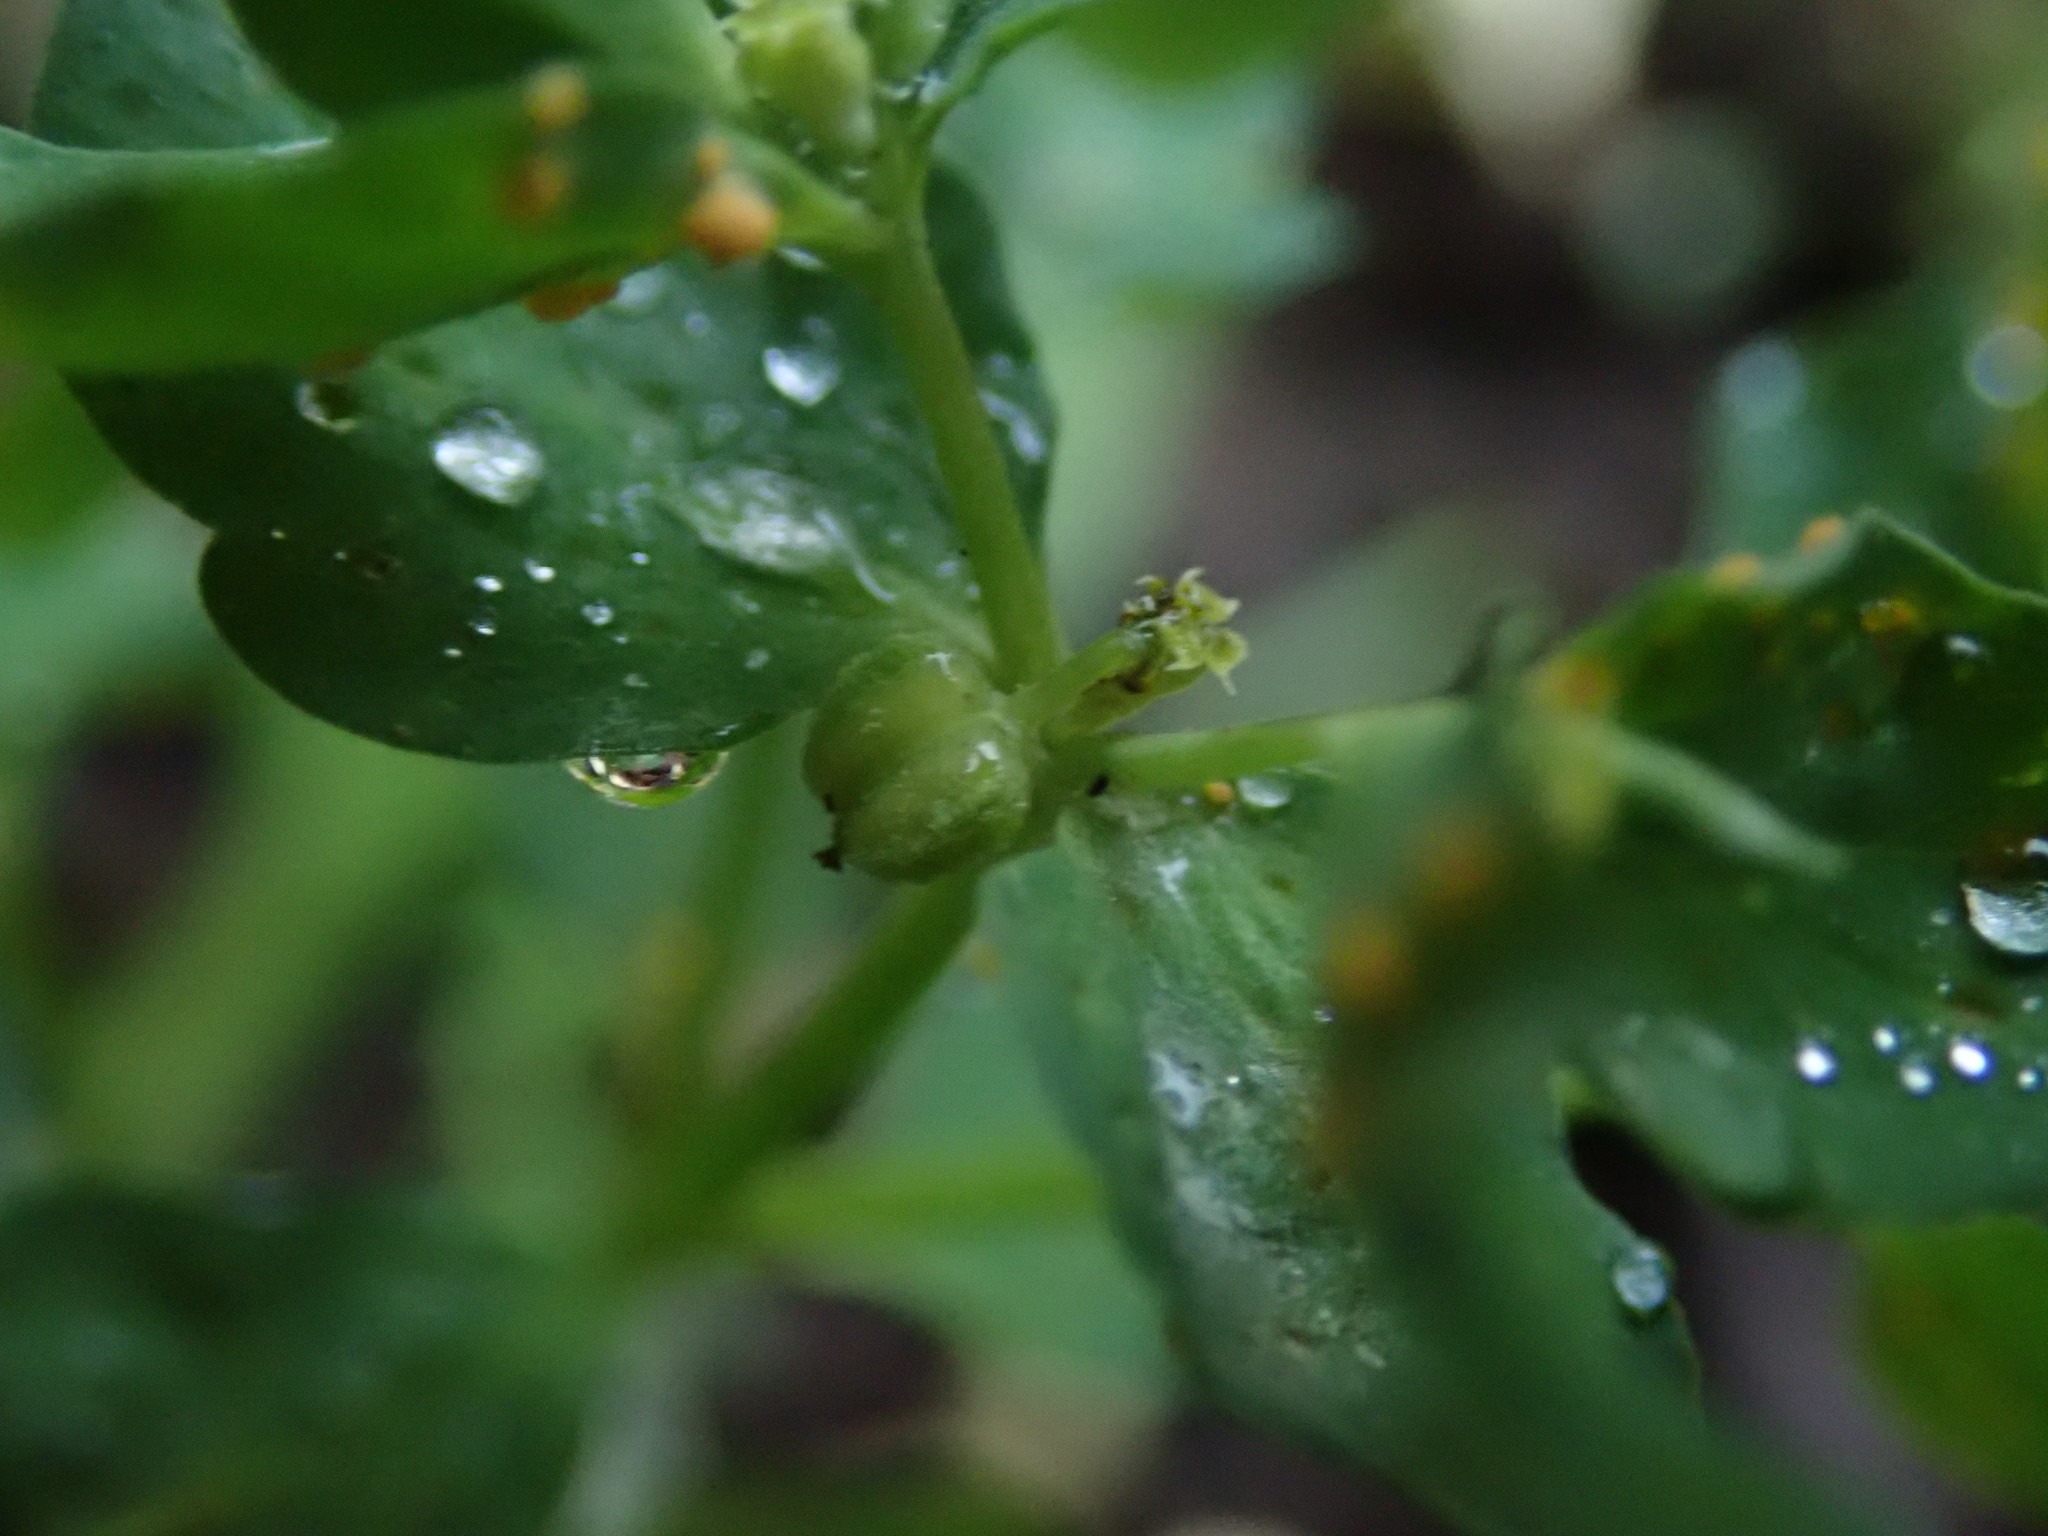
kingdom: Plantae
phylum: Tracheophyta
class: Magnoliopsida
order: Malpighiales
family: Euphorbiaceae
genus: Euphorbia
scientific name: Euphorbia peplus
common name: Petty spurge
